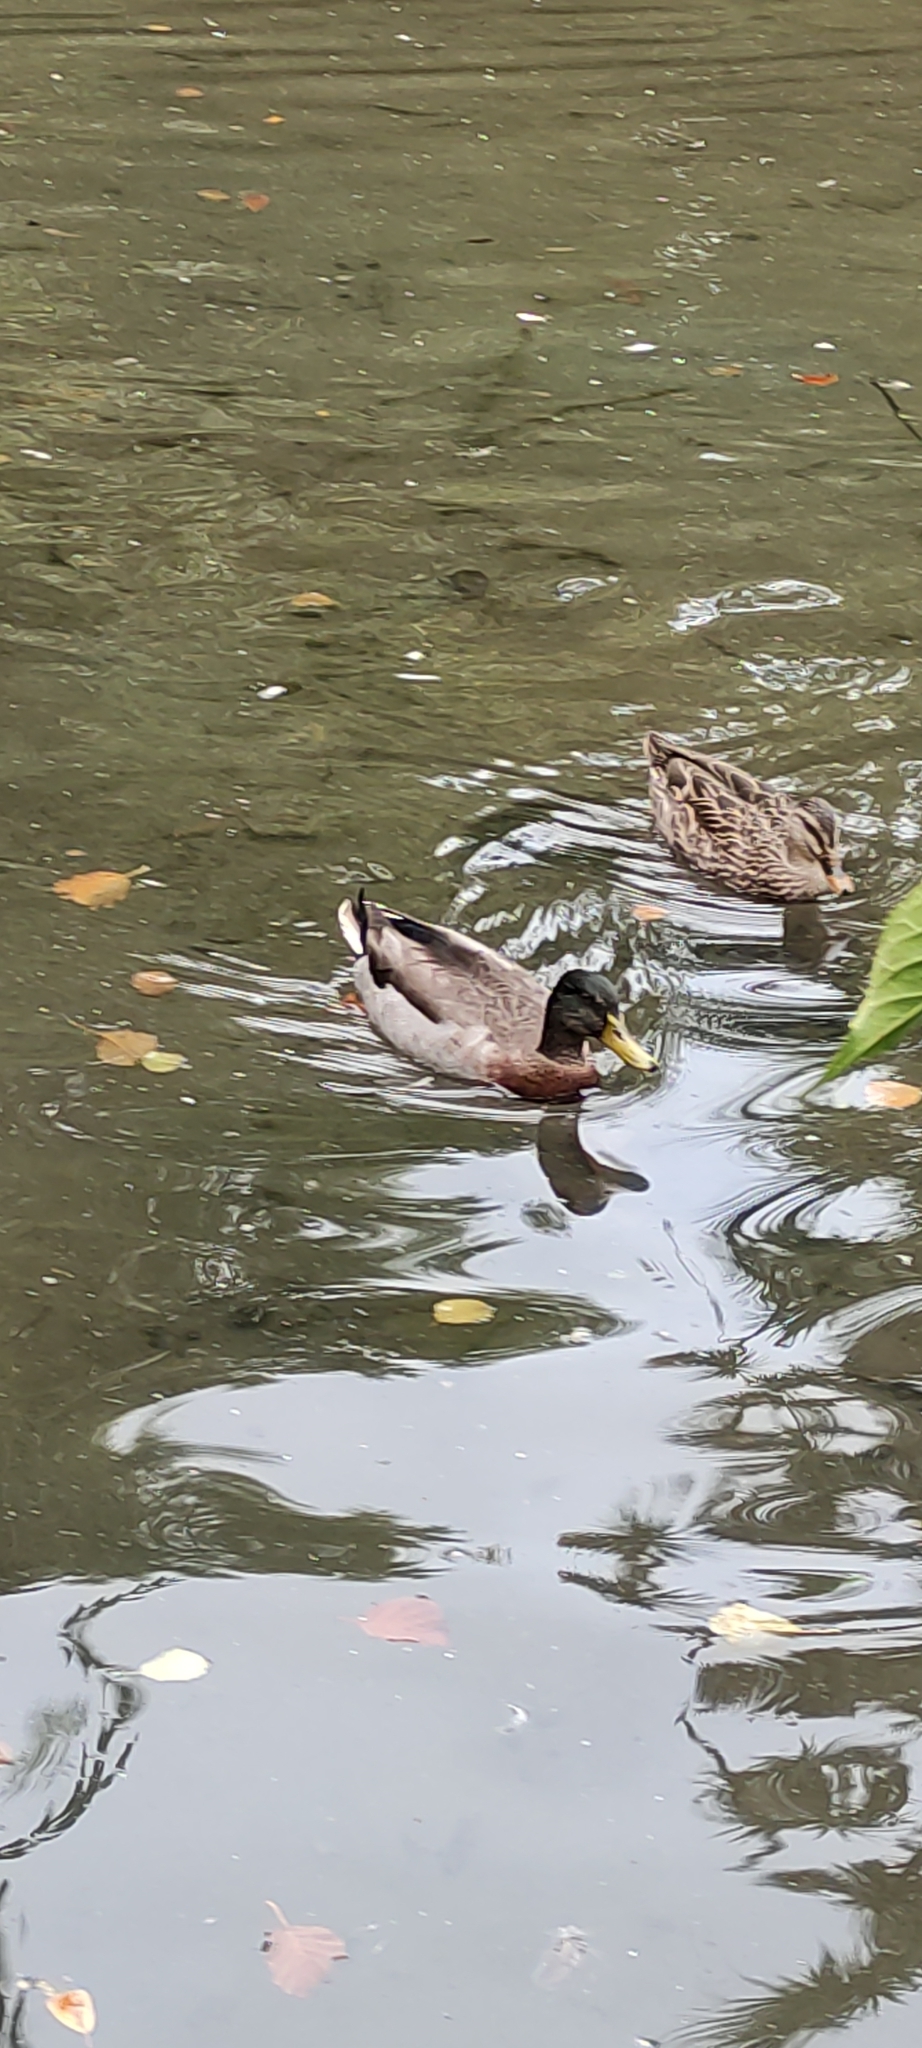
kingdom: Animalia
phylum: Chordata
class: Aves
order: Anseriformes
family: Anatidae
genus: Anas
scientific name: Anas platyrhynchos
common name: Mallard
